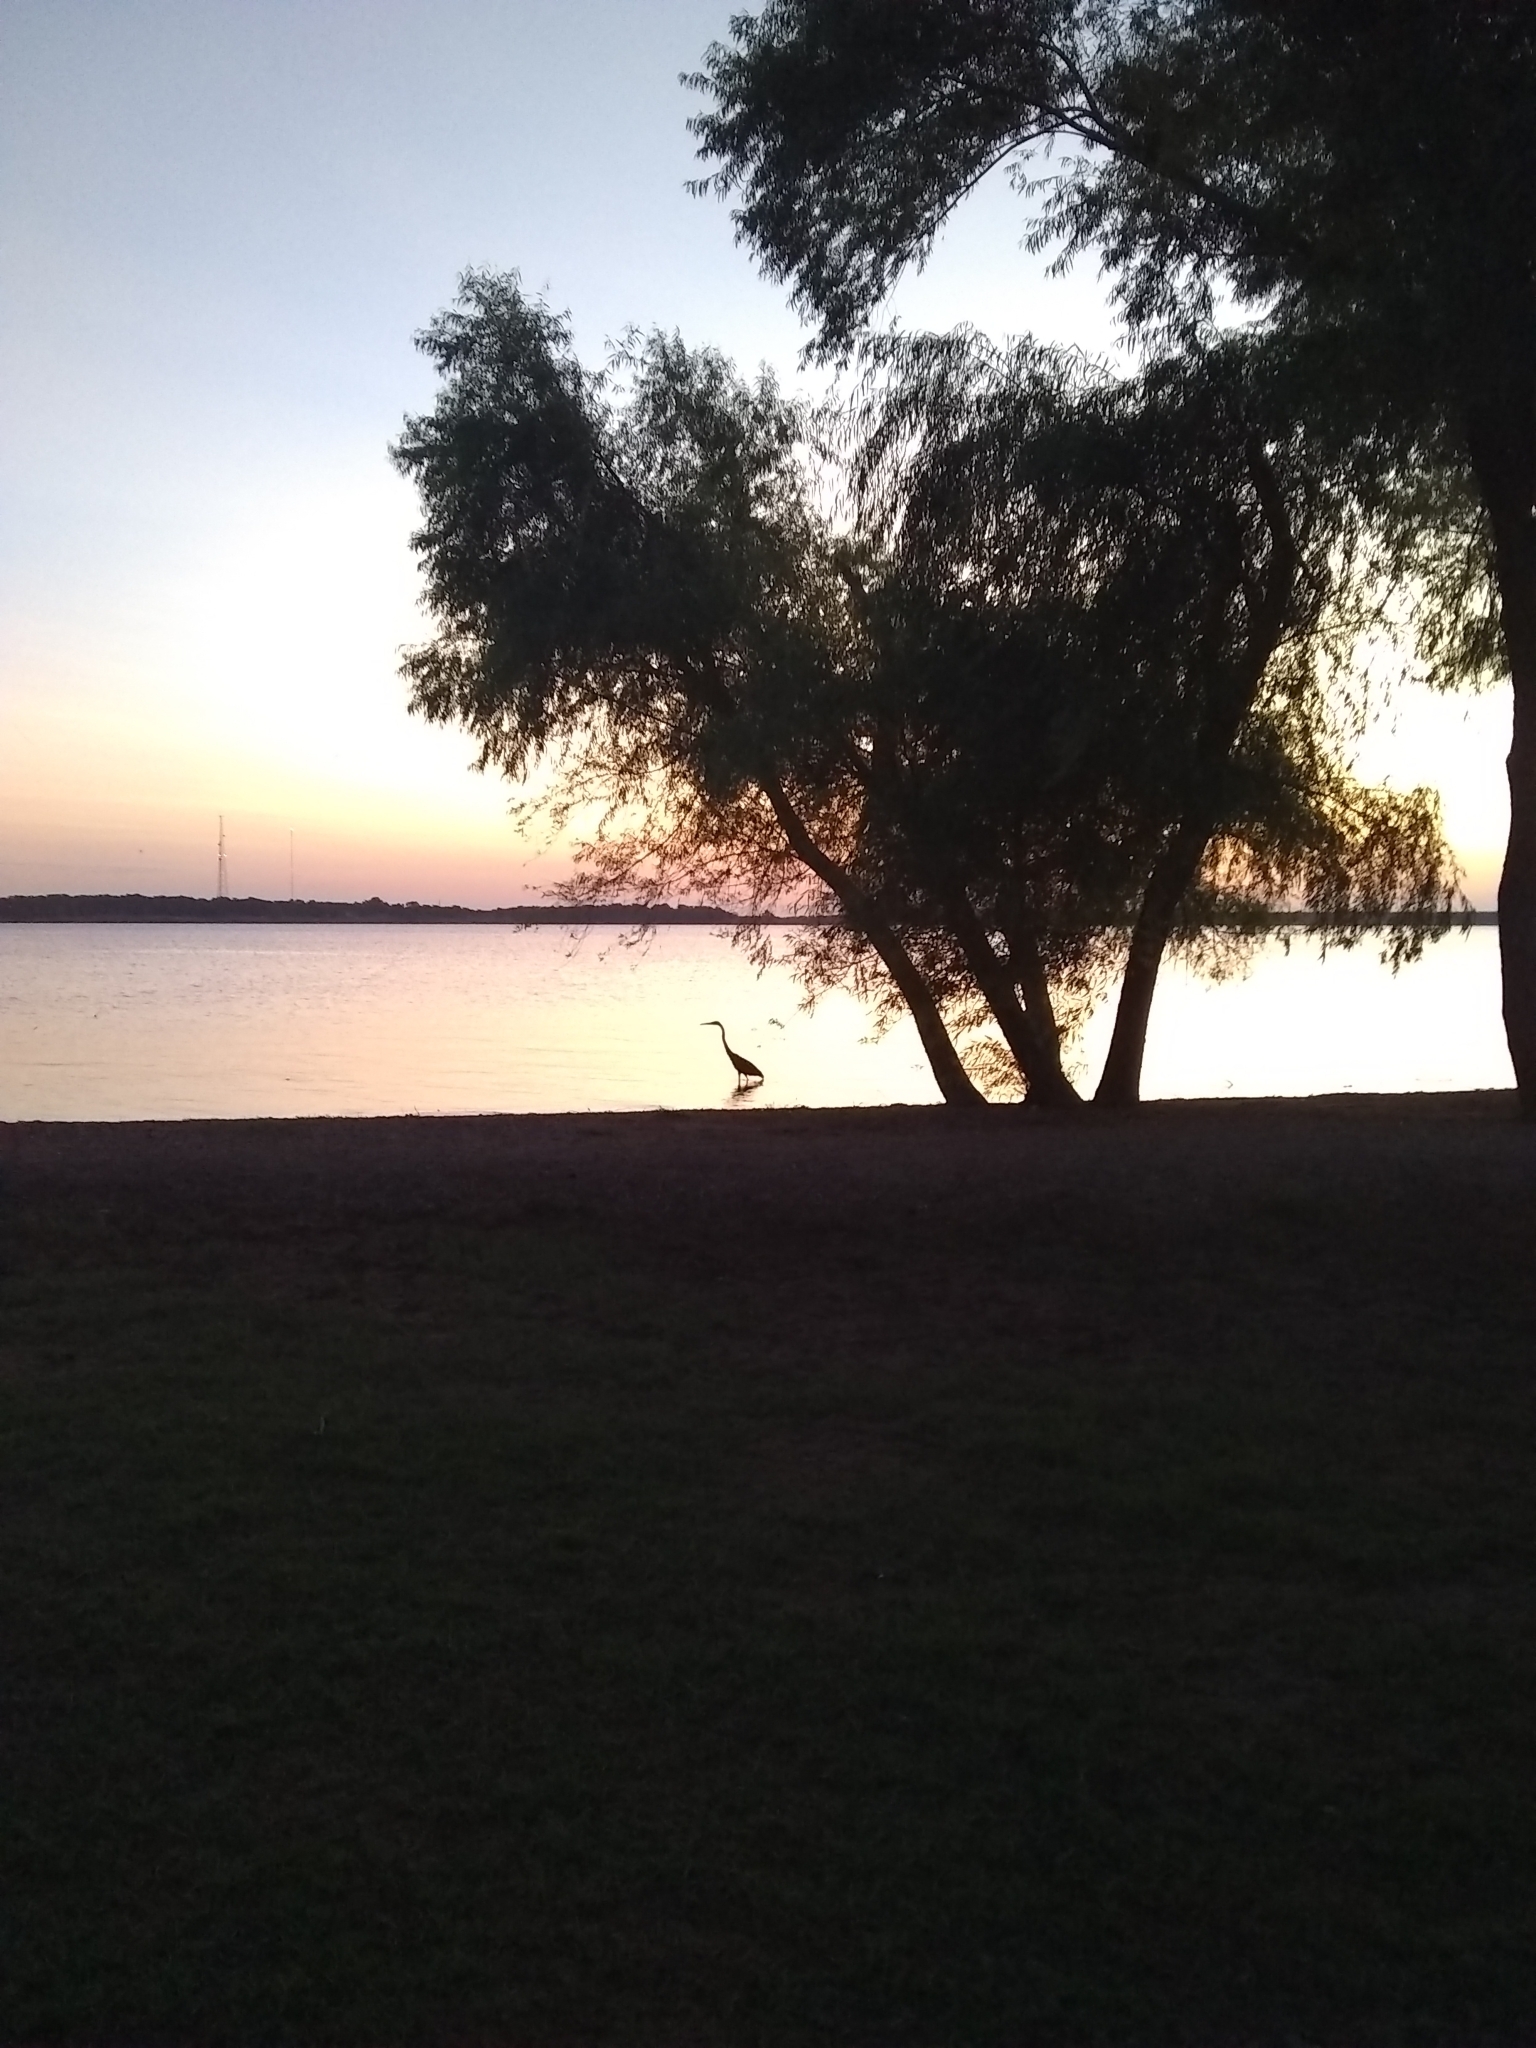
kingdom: Animalia
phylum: Chordata
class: Aves
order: Pelecaniformes
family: Ardeidae
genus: Ardea
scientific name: Ardea herodias
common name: Great blue heron
